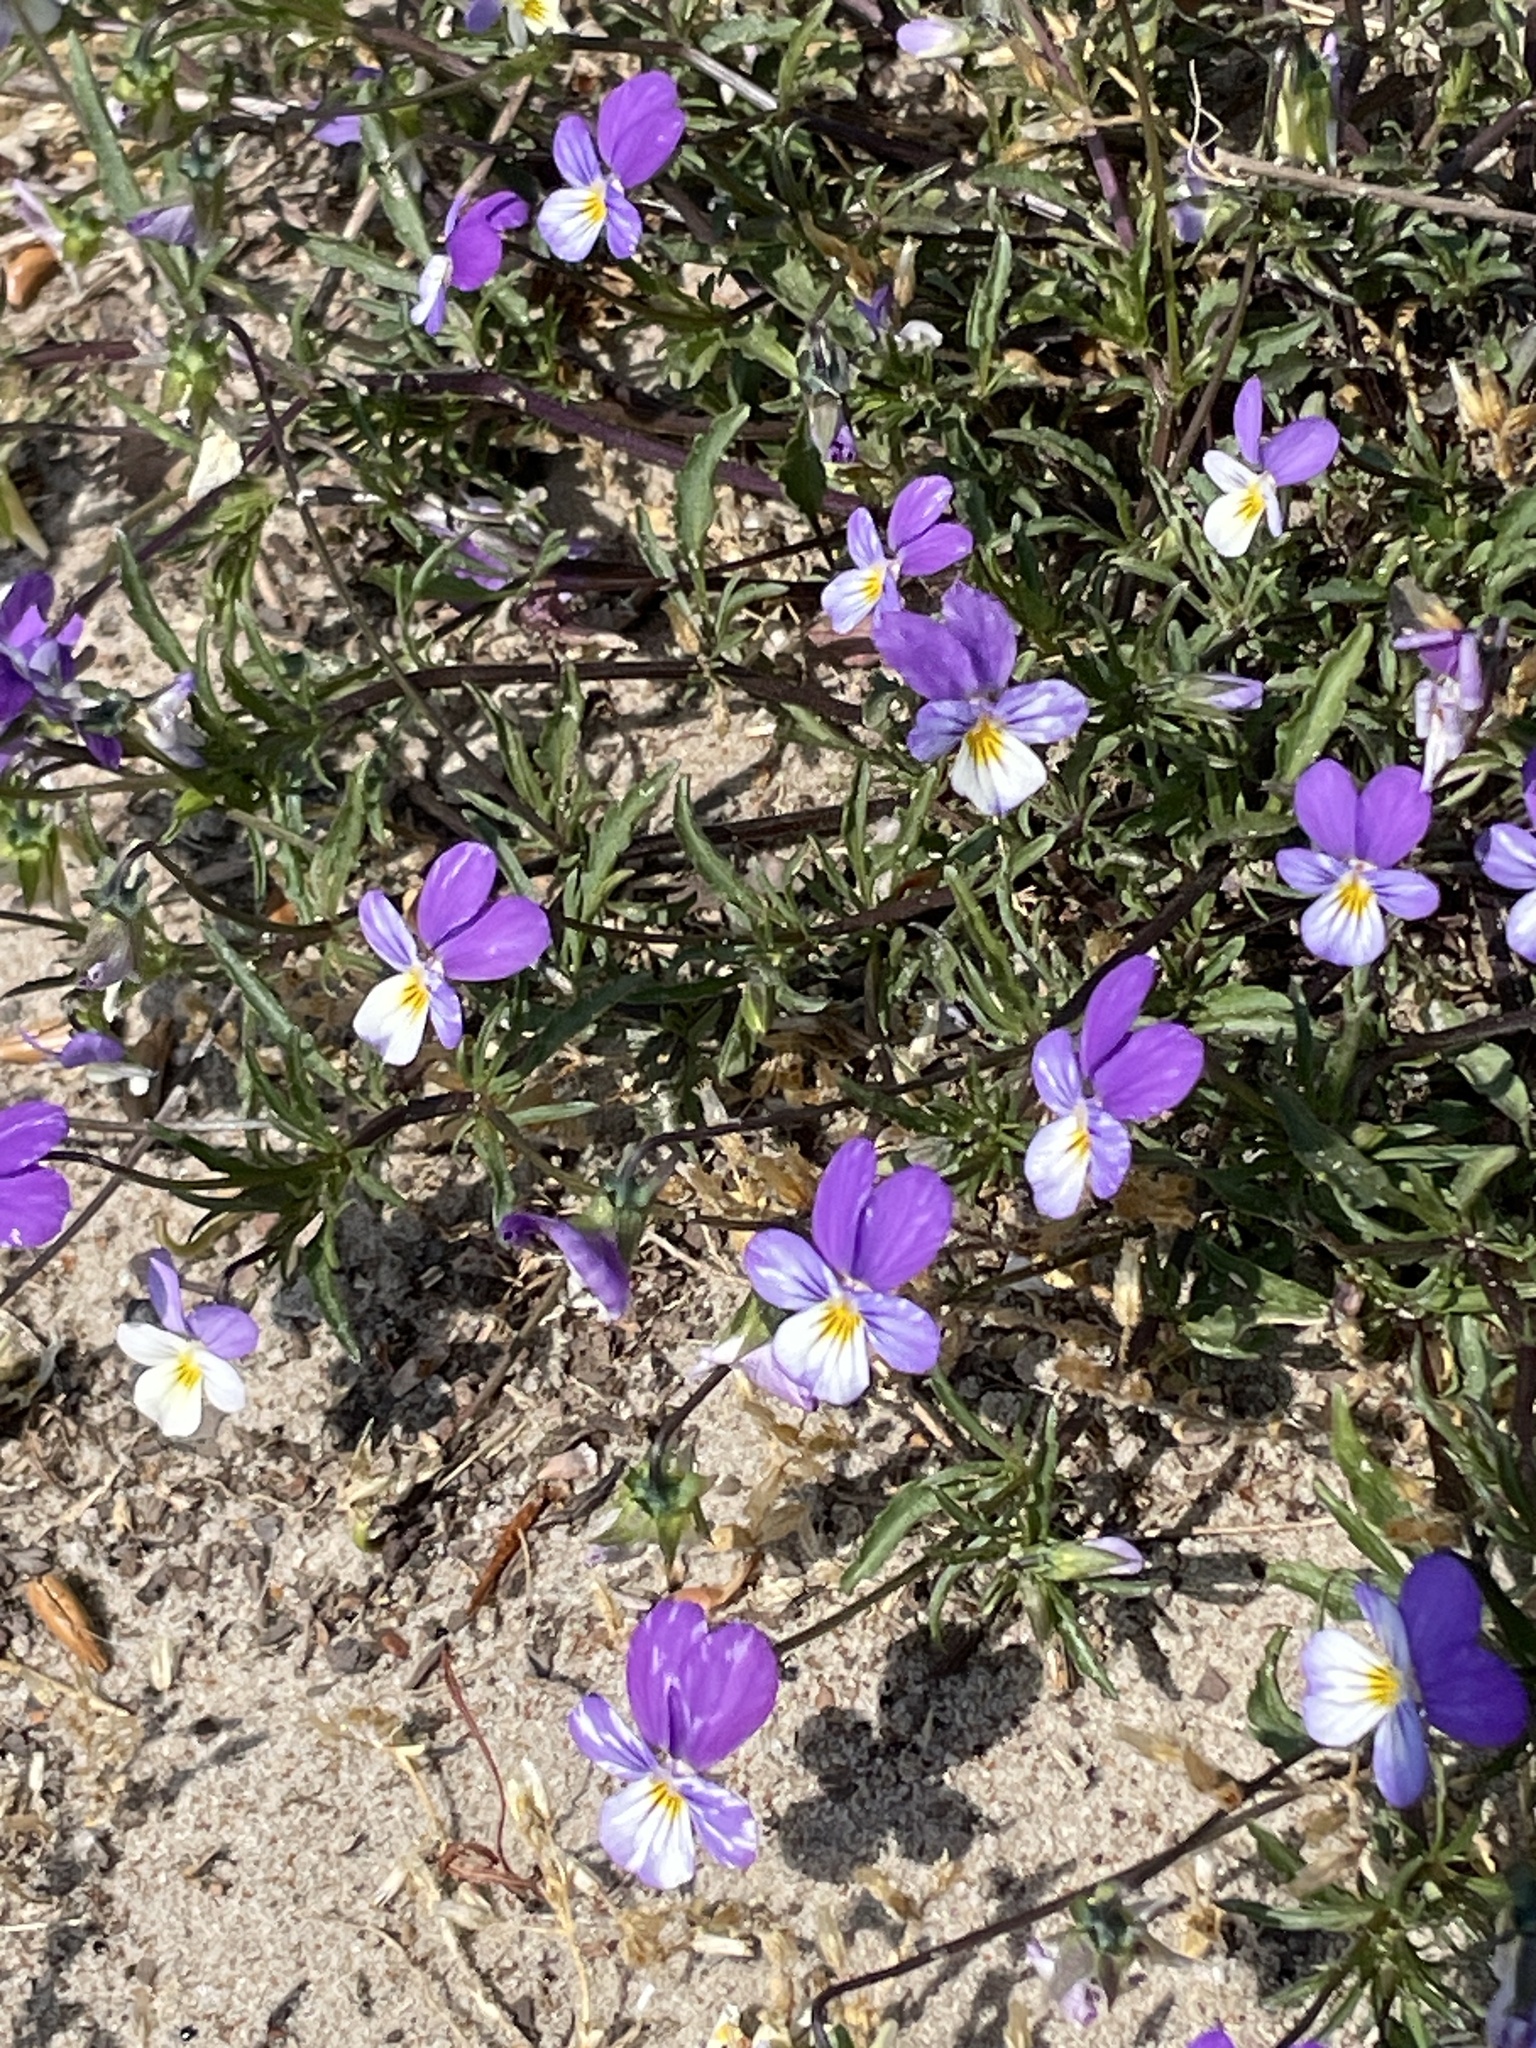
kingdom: Plantae
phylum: Tracheophyta
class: Magnoliopsida
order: Malpighiales
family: Violaceae
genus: Viola
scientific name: Viola tricolor
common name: Pansy
